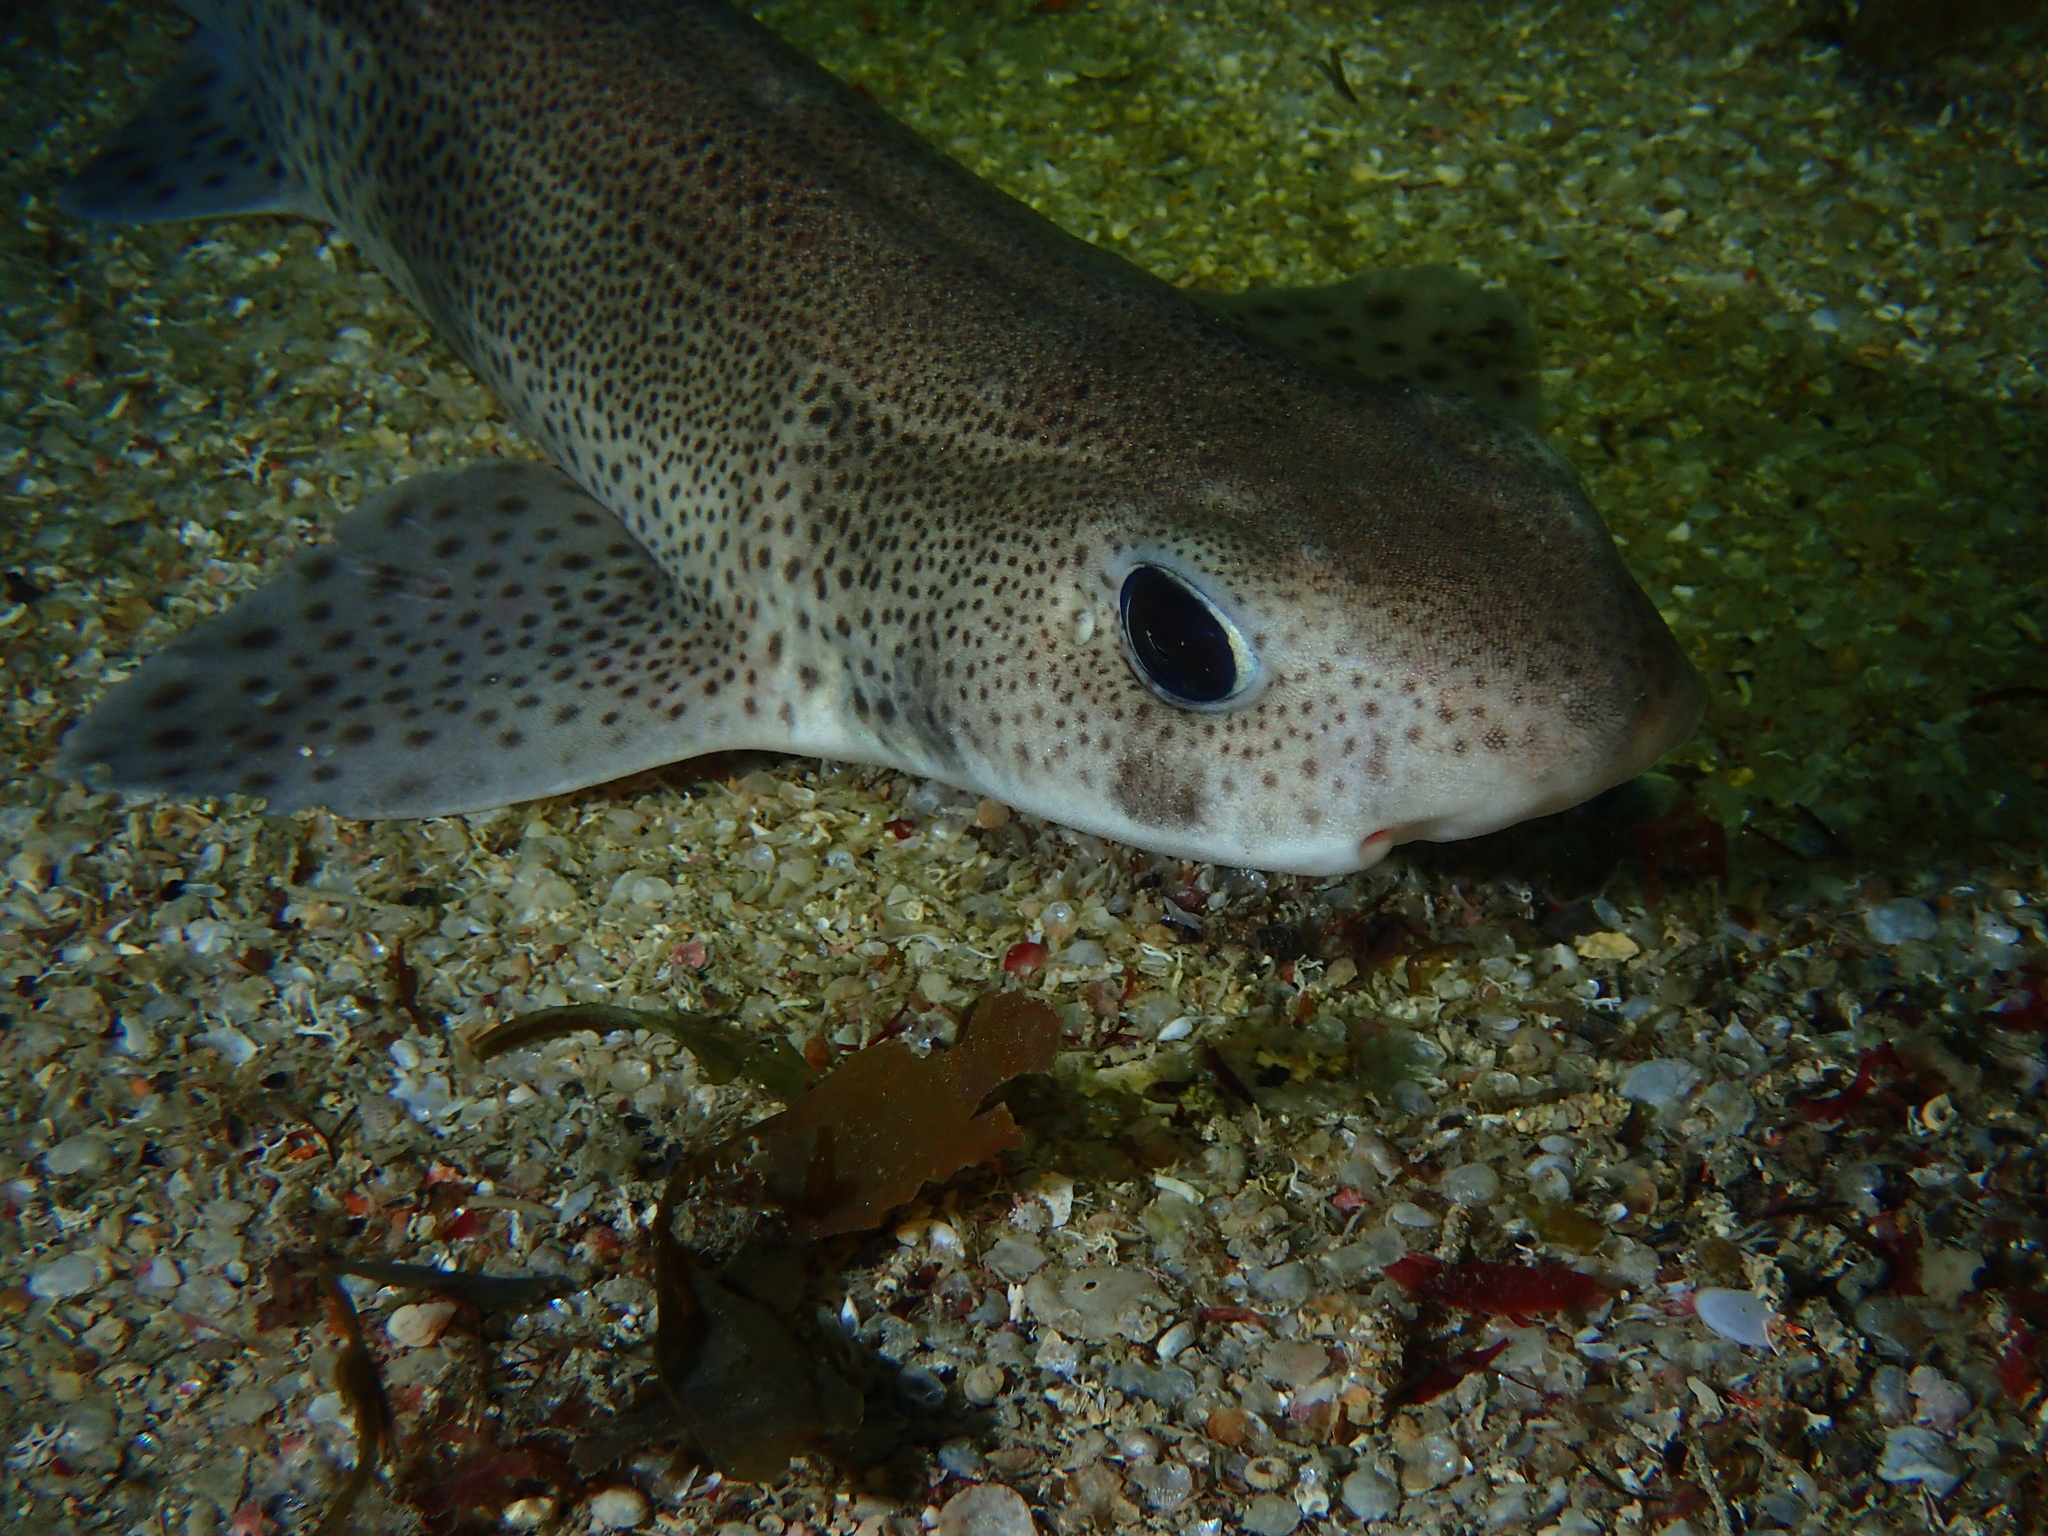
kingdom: Animalia
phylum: Chordata
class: Elasmobranchii
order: Carcharhiniformes
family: Scyliorhinidae
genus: Scyliorhinus
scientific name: Scyliorhinus canicula
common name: Lesser spotted dogfish
